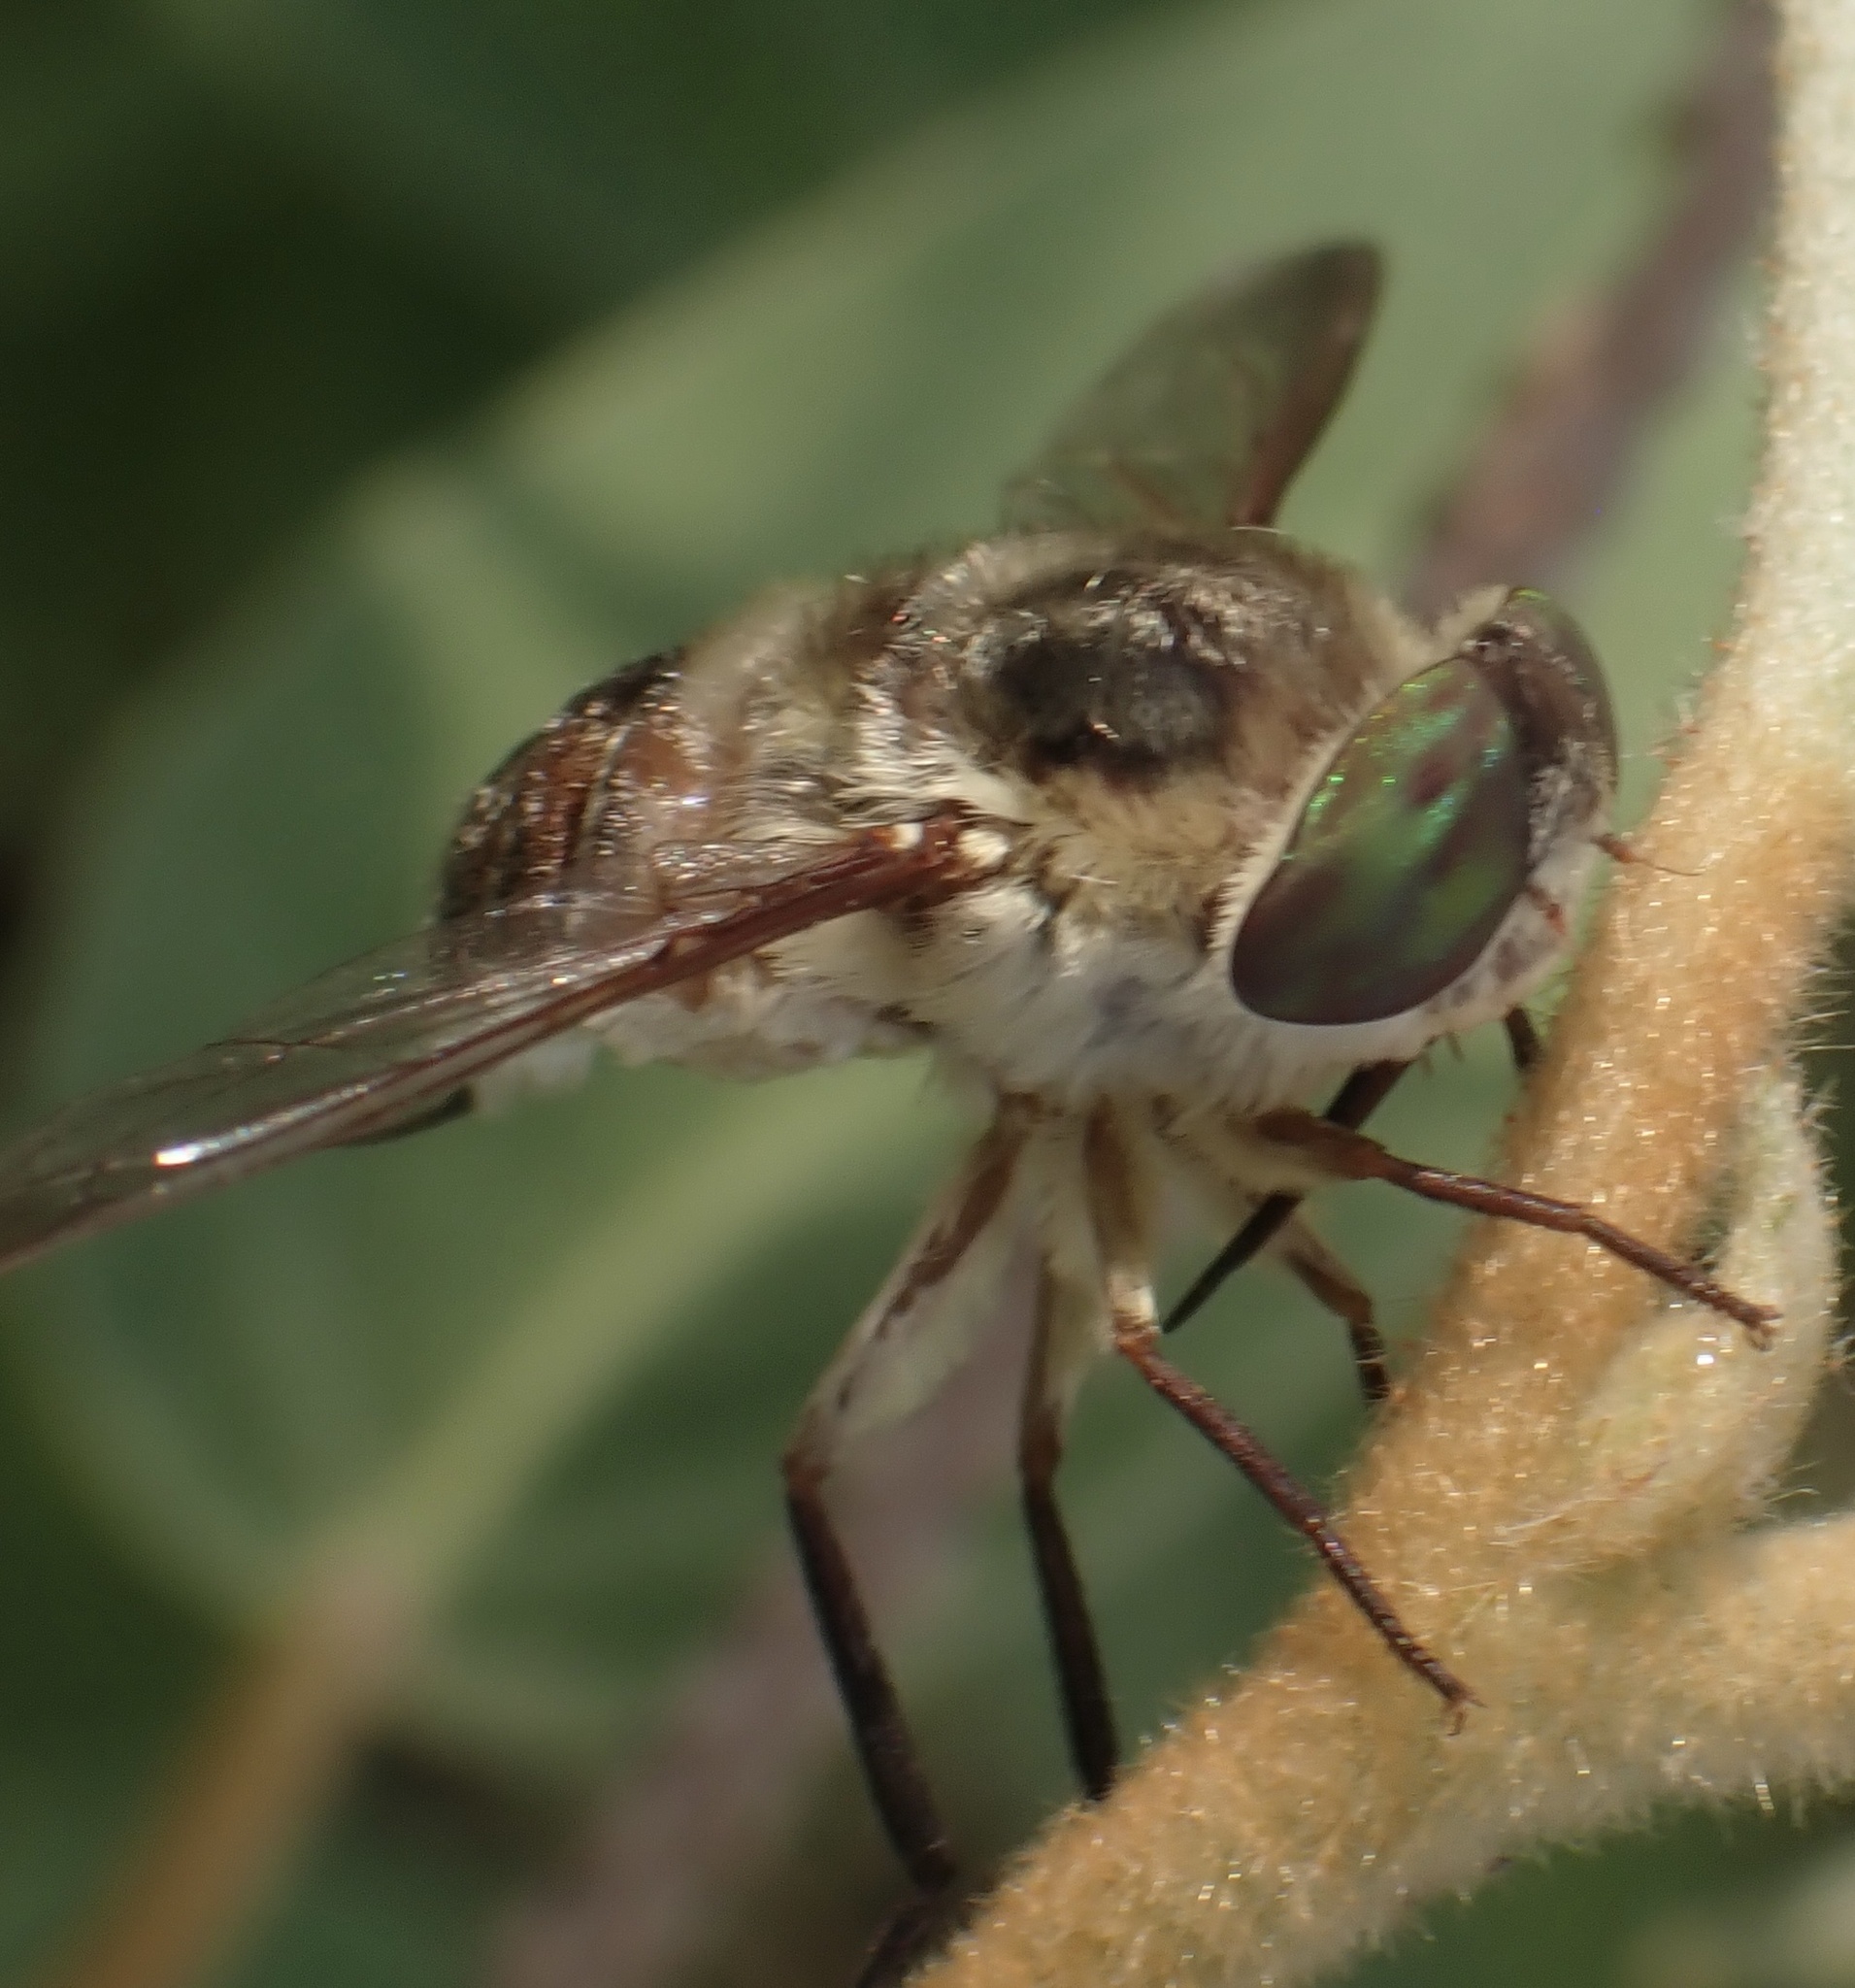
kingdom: Animalia
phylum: Arthropoda
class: Insecta
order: Diptera
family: Nemestrinidae
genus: Neorhynchocephalus
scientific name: Neorhynchocephalus volaticus
